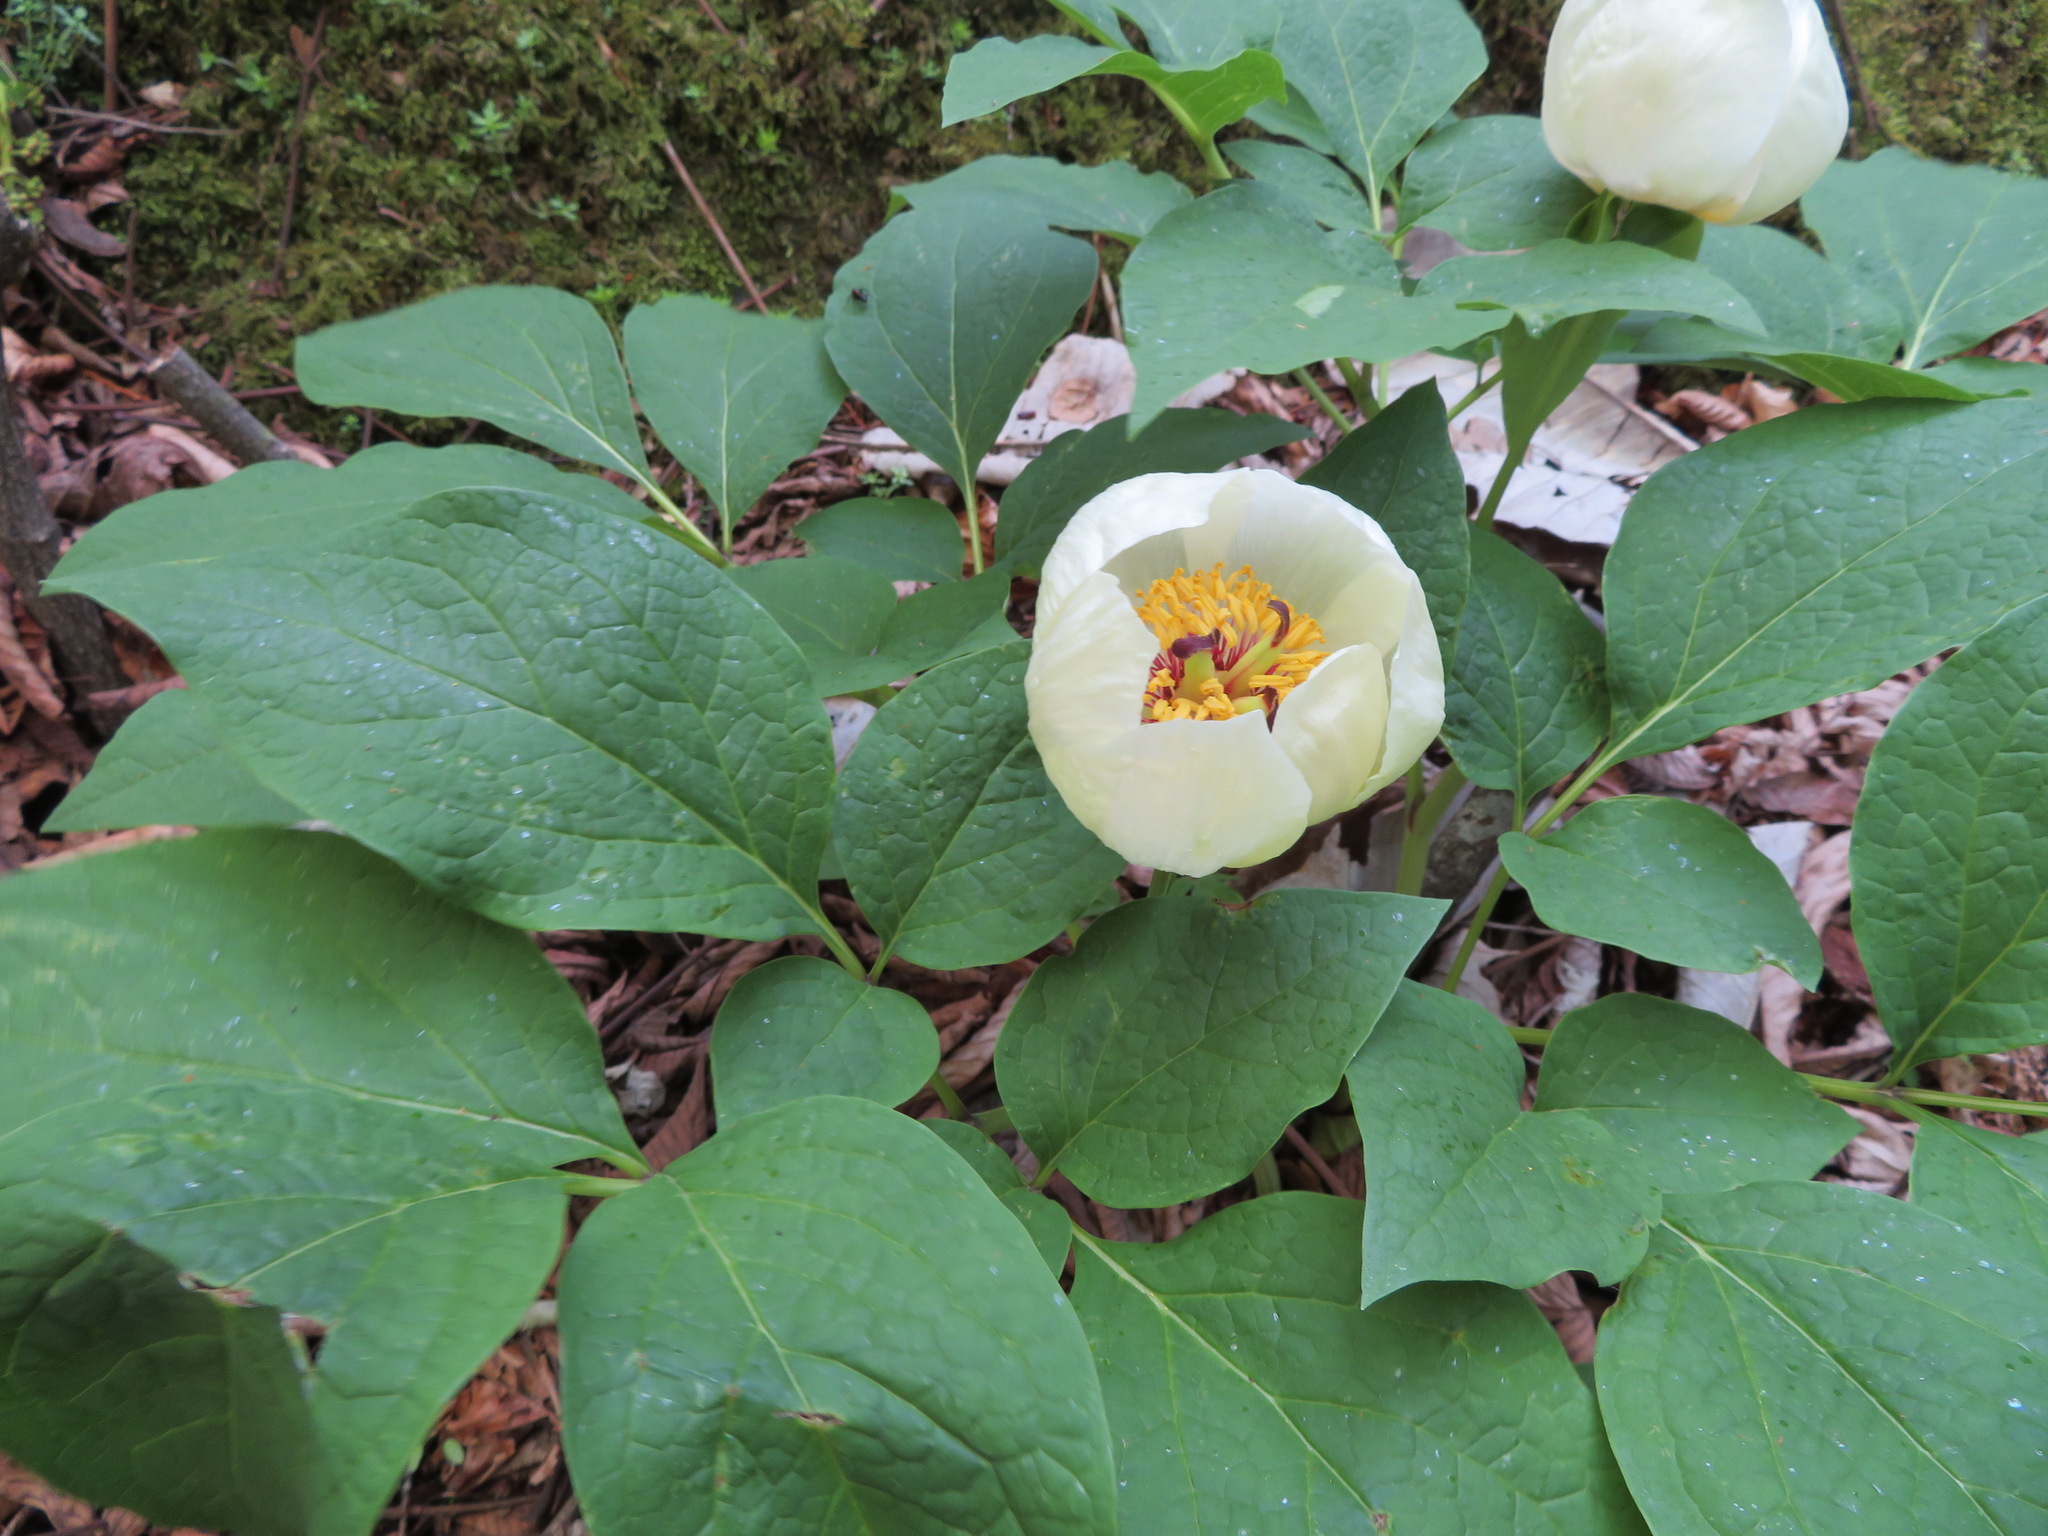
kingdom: Plantae
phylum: Tracheophyta
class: Magnoliopsida
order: Saxifragales
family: Paeoniaceae
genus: Paeonia
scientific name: Paeonia obovata
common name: Chinese peony
